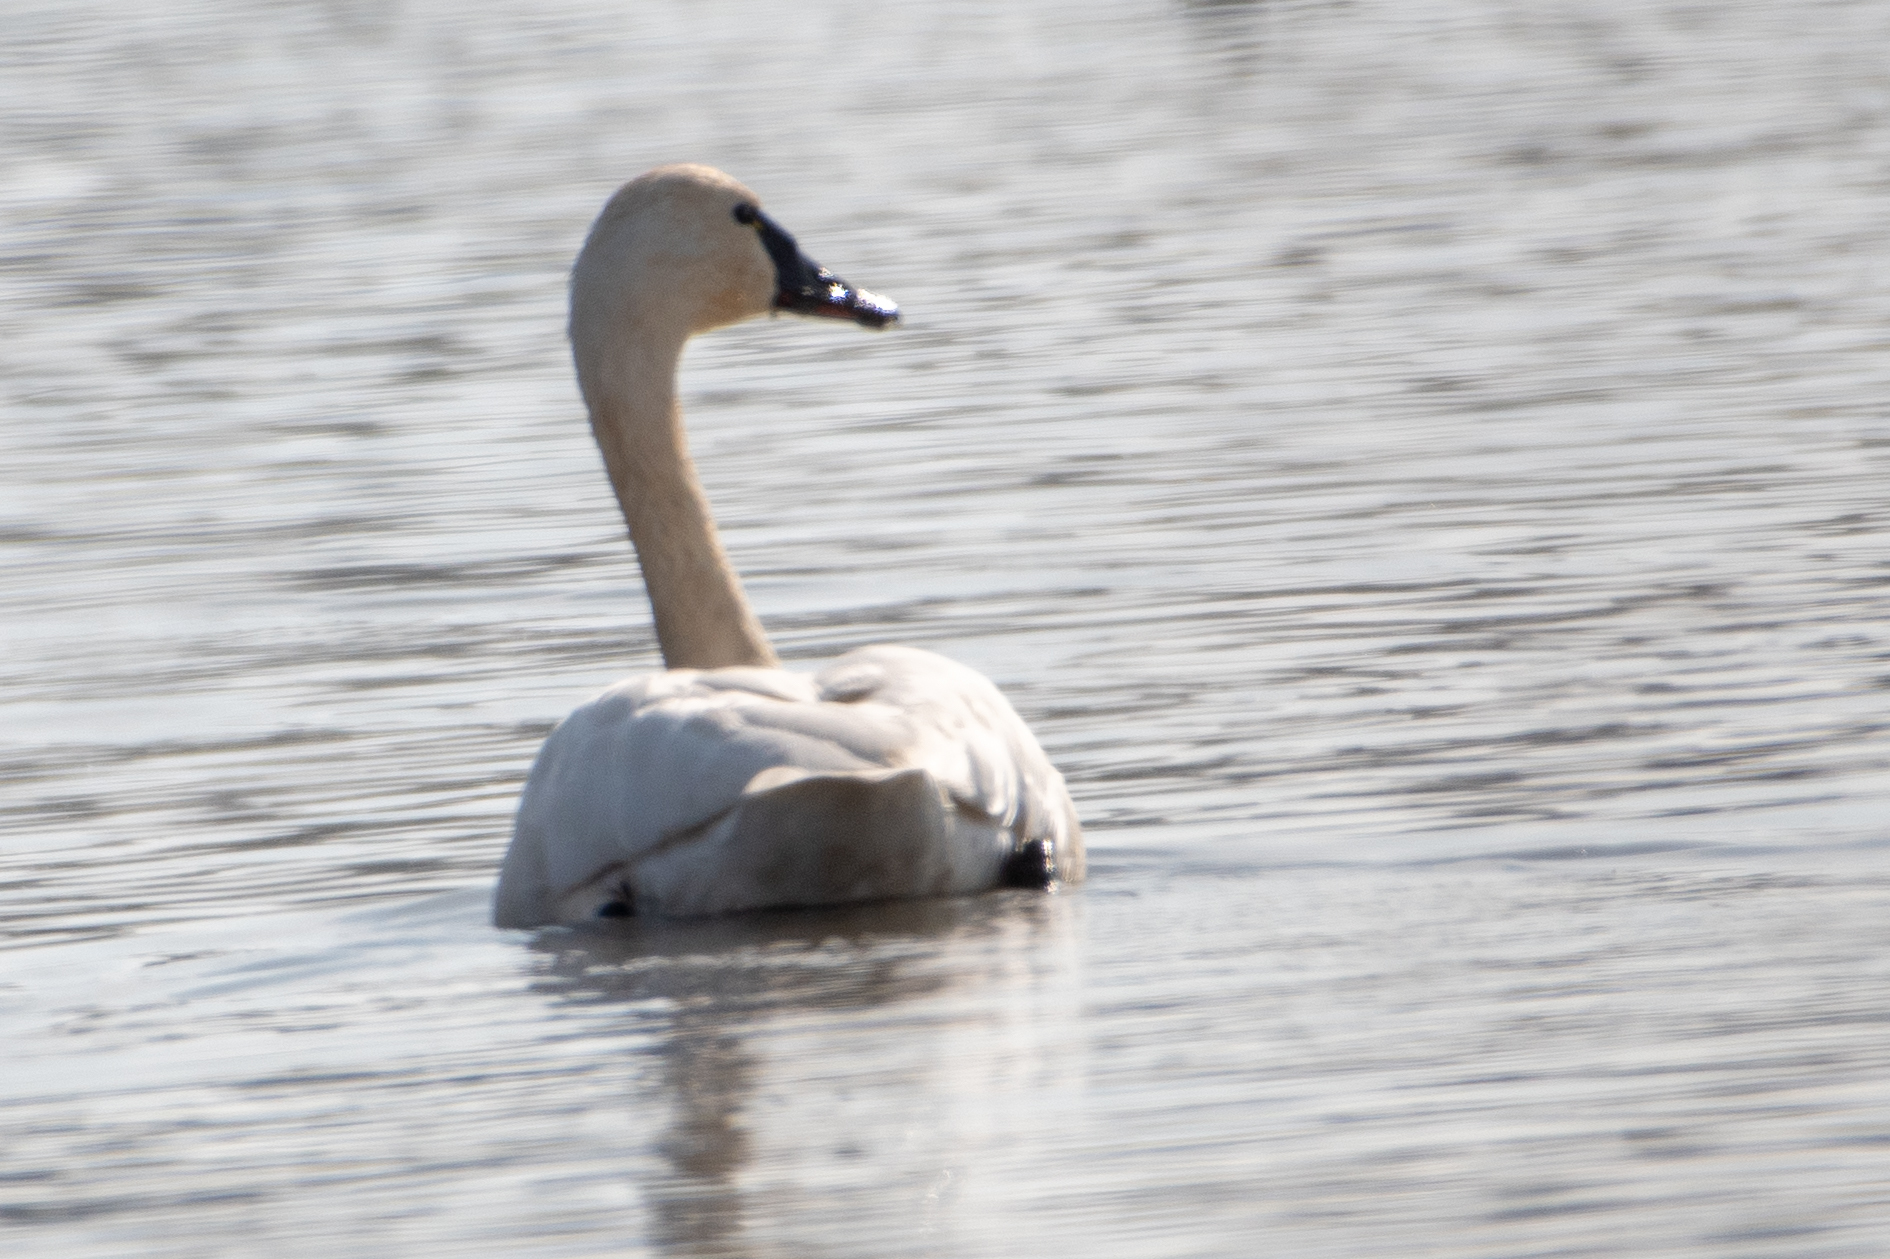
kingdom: Animalia
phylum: Chordata
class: Aves
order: Anseriformes
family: Anatidae
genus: Cygnus
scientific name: Cygnus columbianus
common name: Tundra swan
